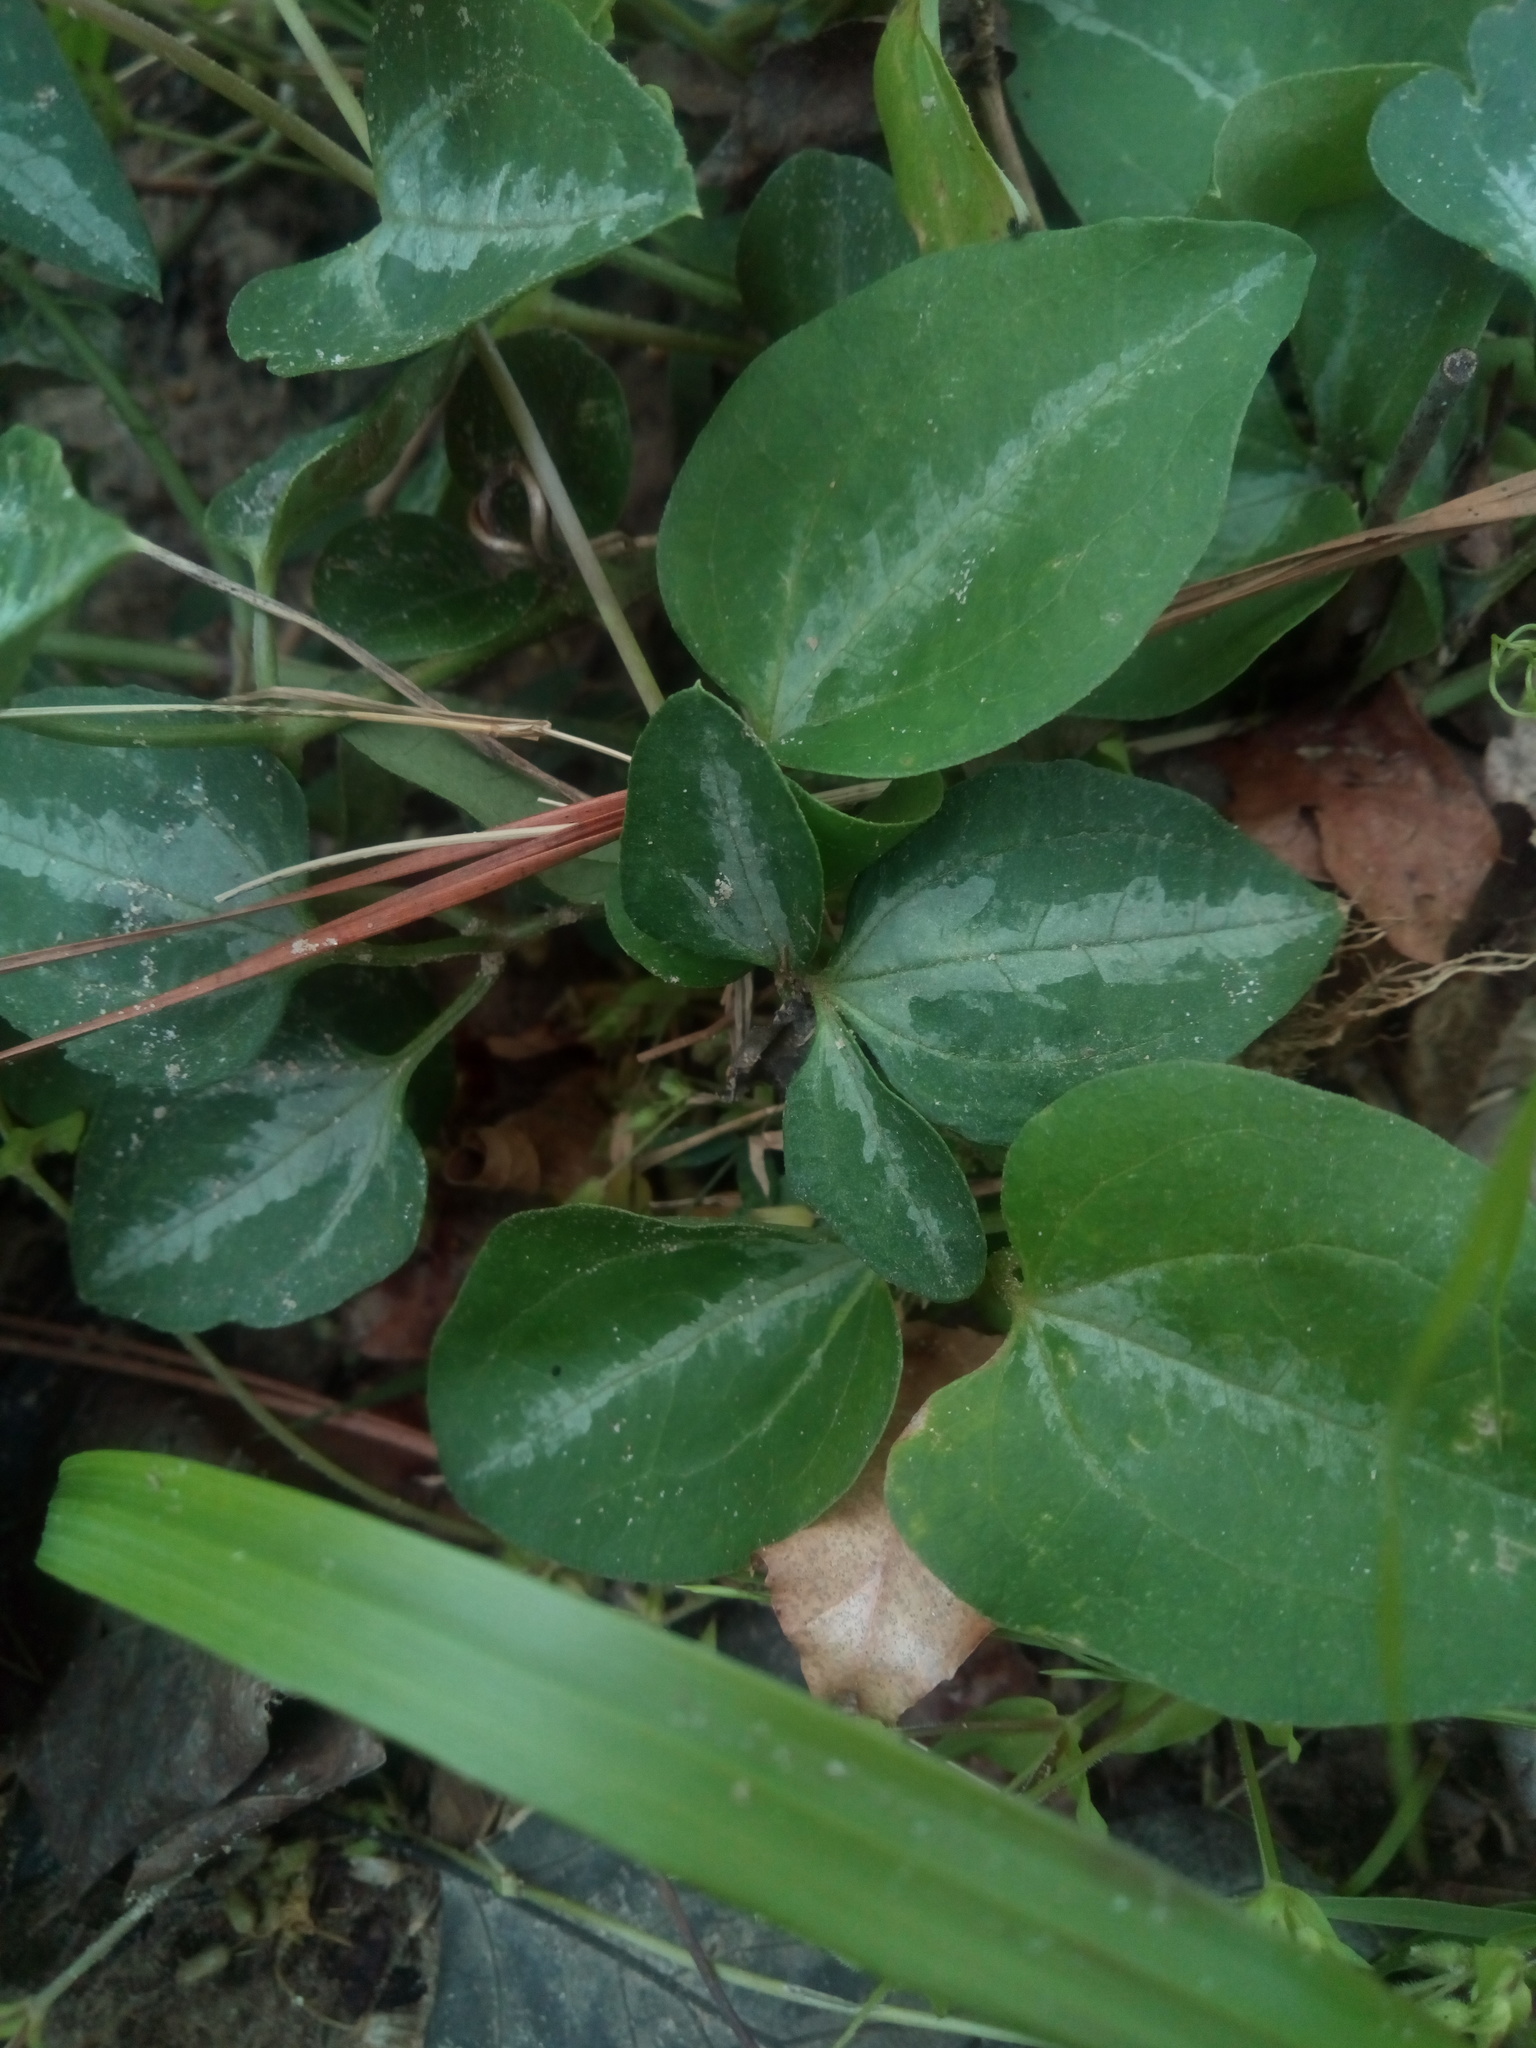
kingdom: Plantae
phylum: Tracheophyta
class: Magnoliopsida
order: Ranunculales
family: Ranunculaceae
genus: Clematis
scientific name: Clematis terniflora
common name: Sweet autumn clematis
